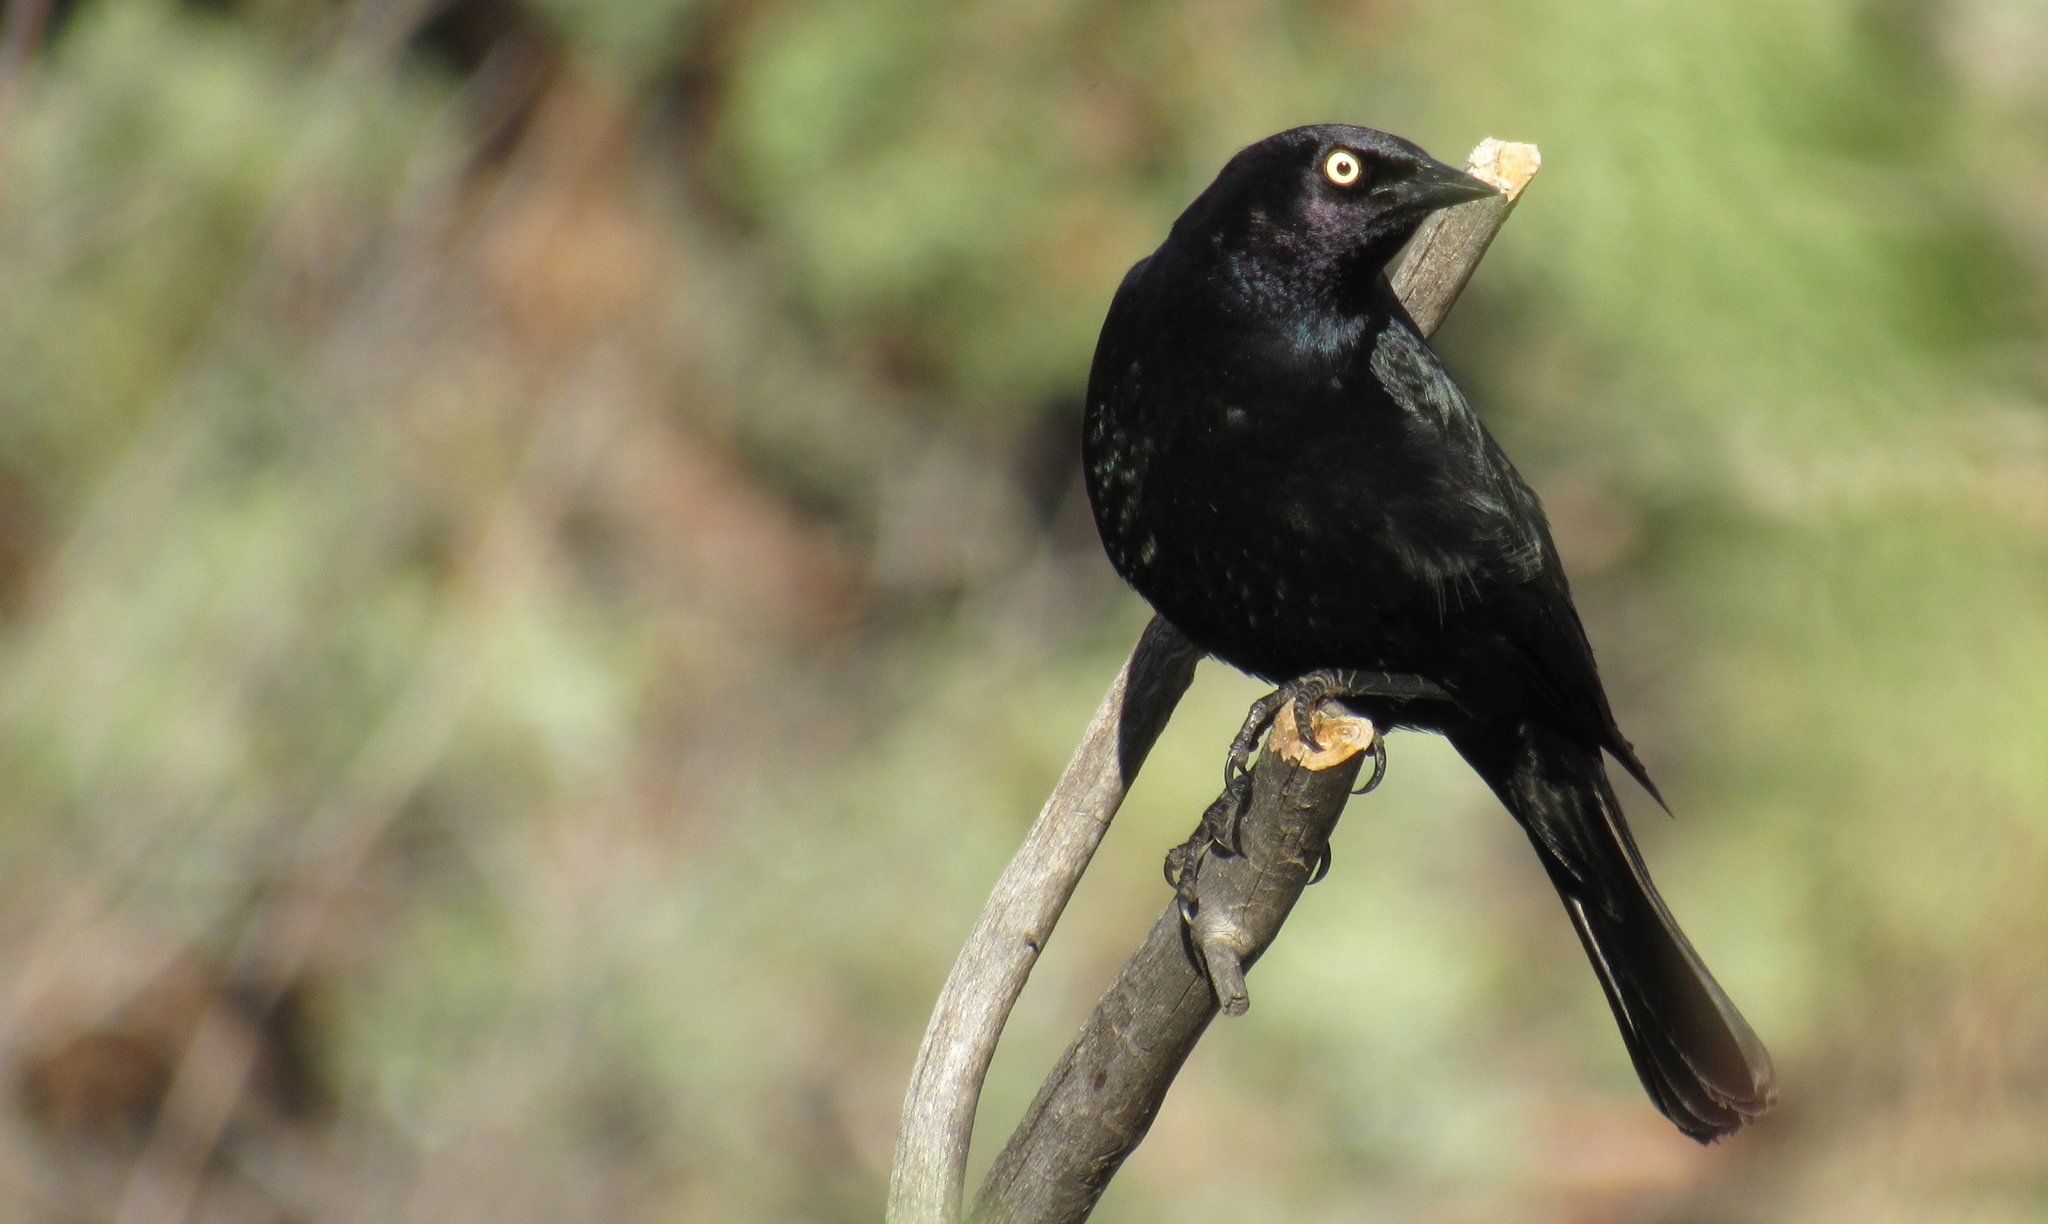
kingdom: Animalia
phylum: Chordata
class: Aves
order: Passeriformes
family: Icteridae
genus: Euphagus
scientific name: Euphagus cyanocephalus
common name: Brewer's blackbird
